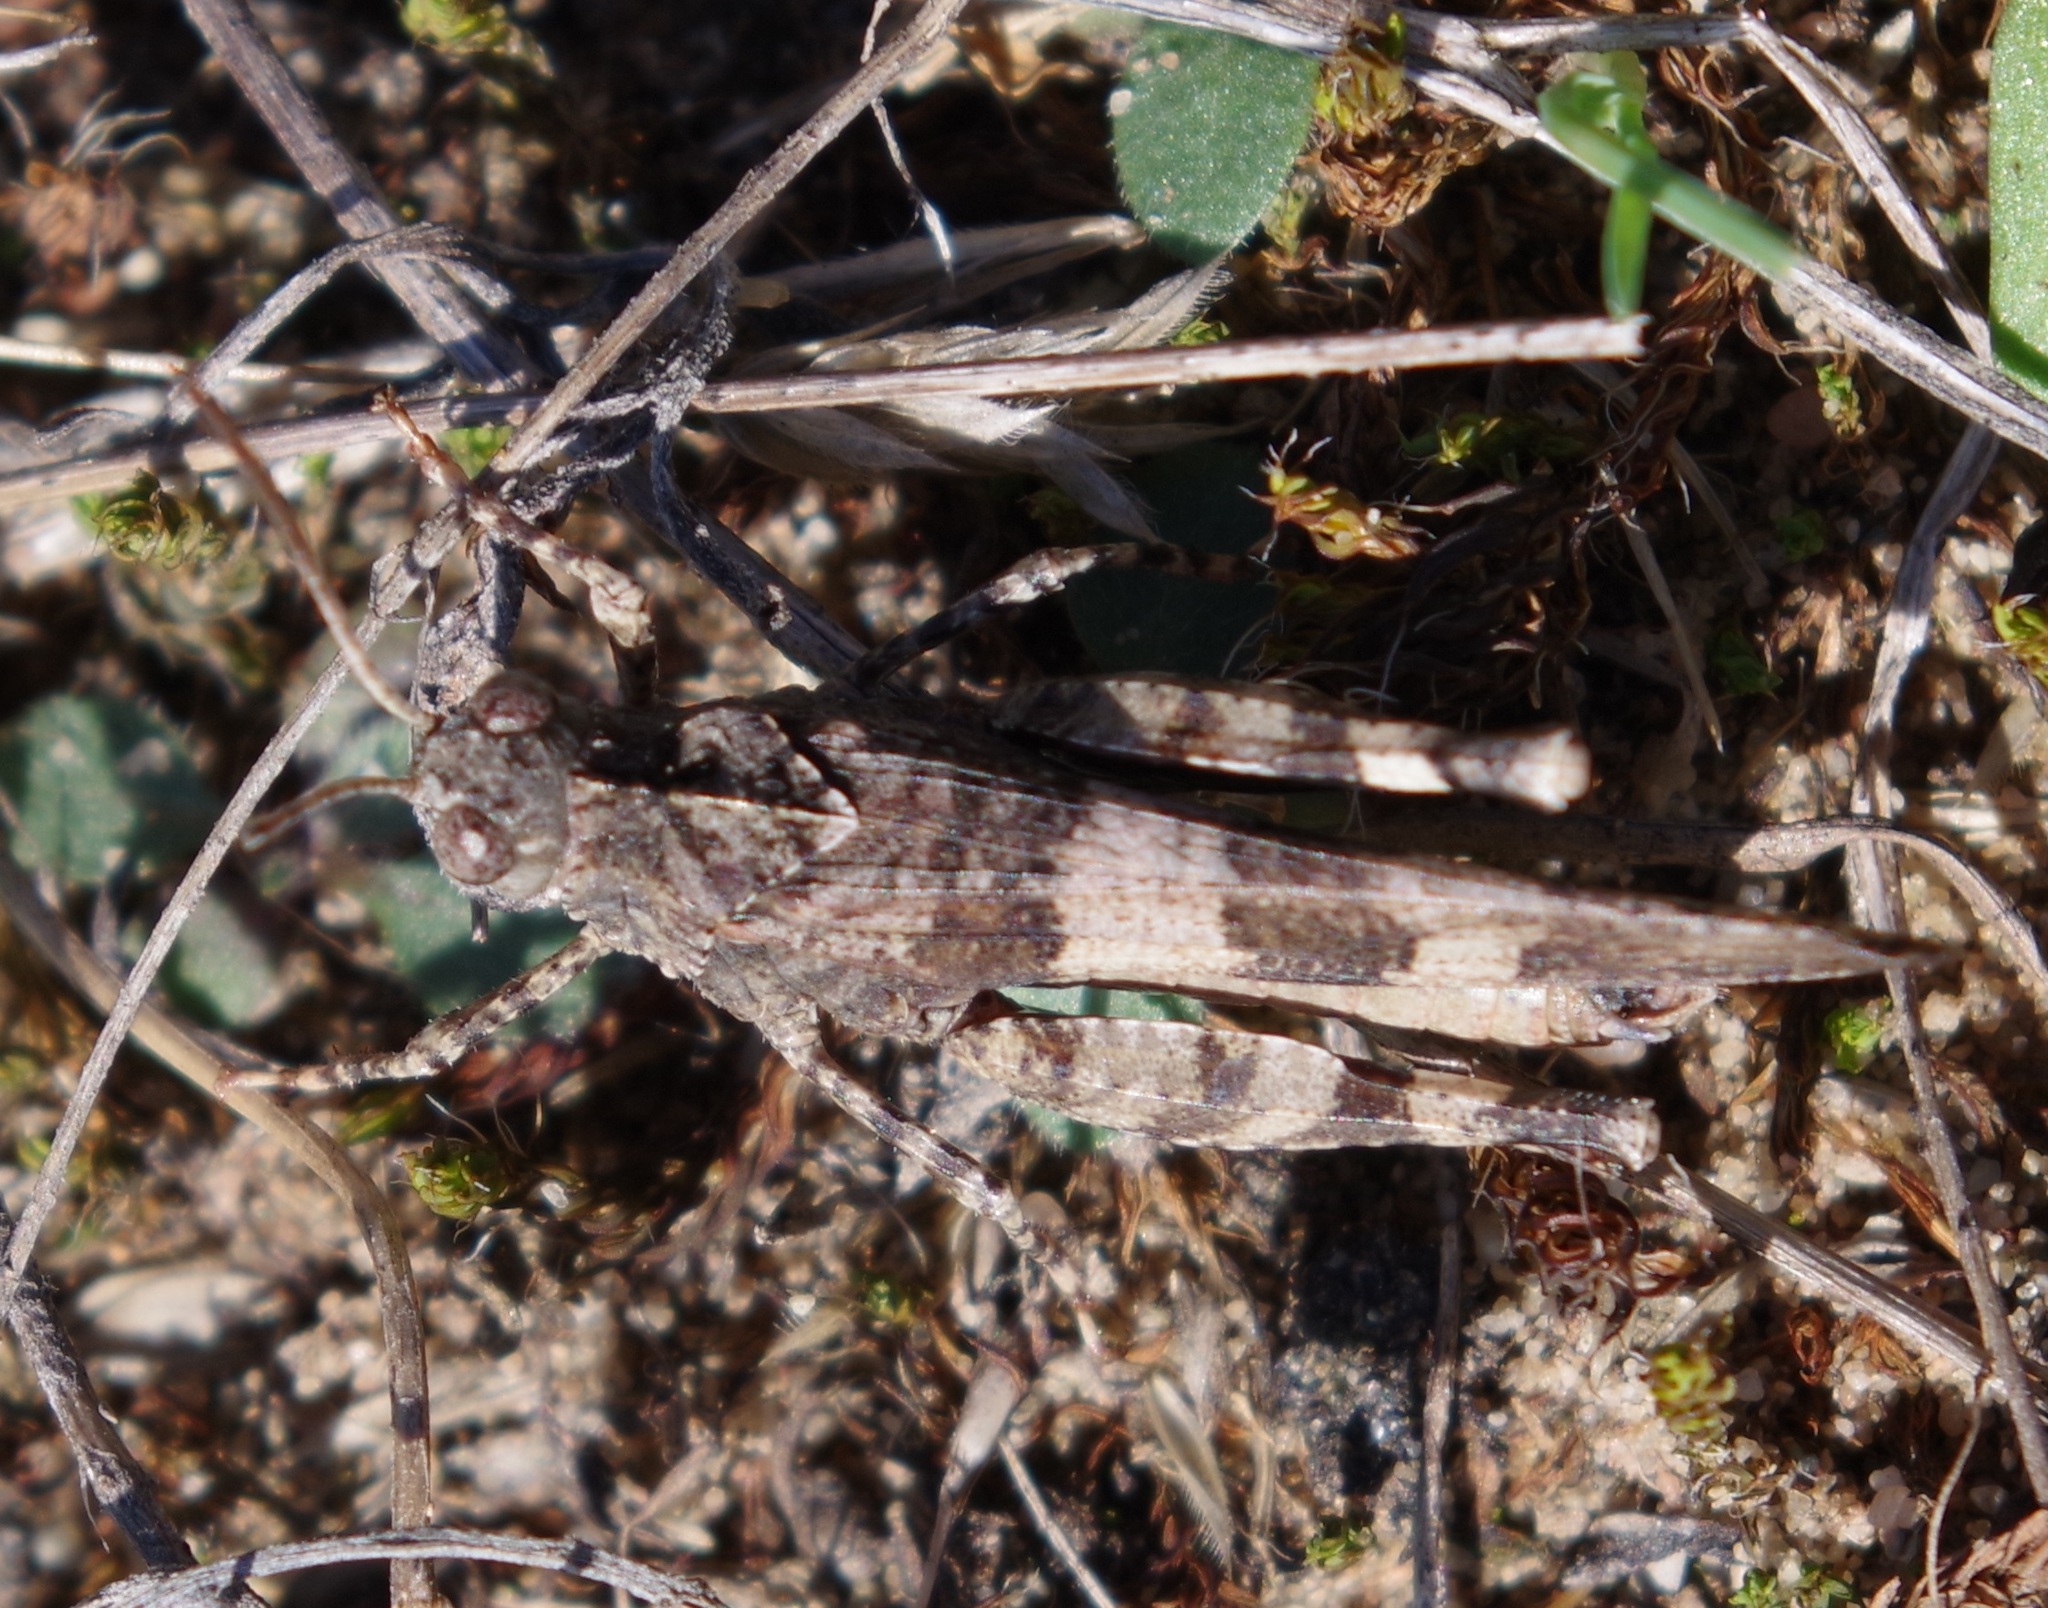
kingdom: Animalia
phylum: Arthropoda
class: Insecta
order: Orthoptera
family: Acrididae
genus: Oedipoda
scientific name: Oedipoda caerulescens
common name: Blue-winged grasshopper
